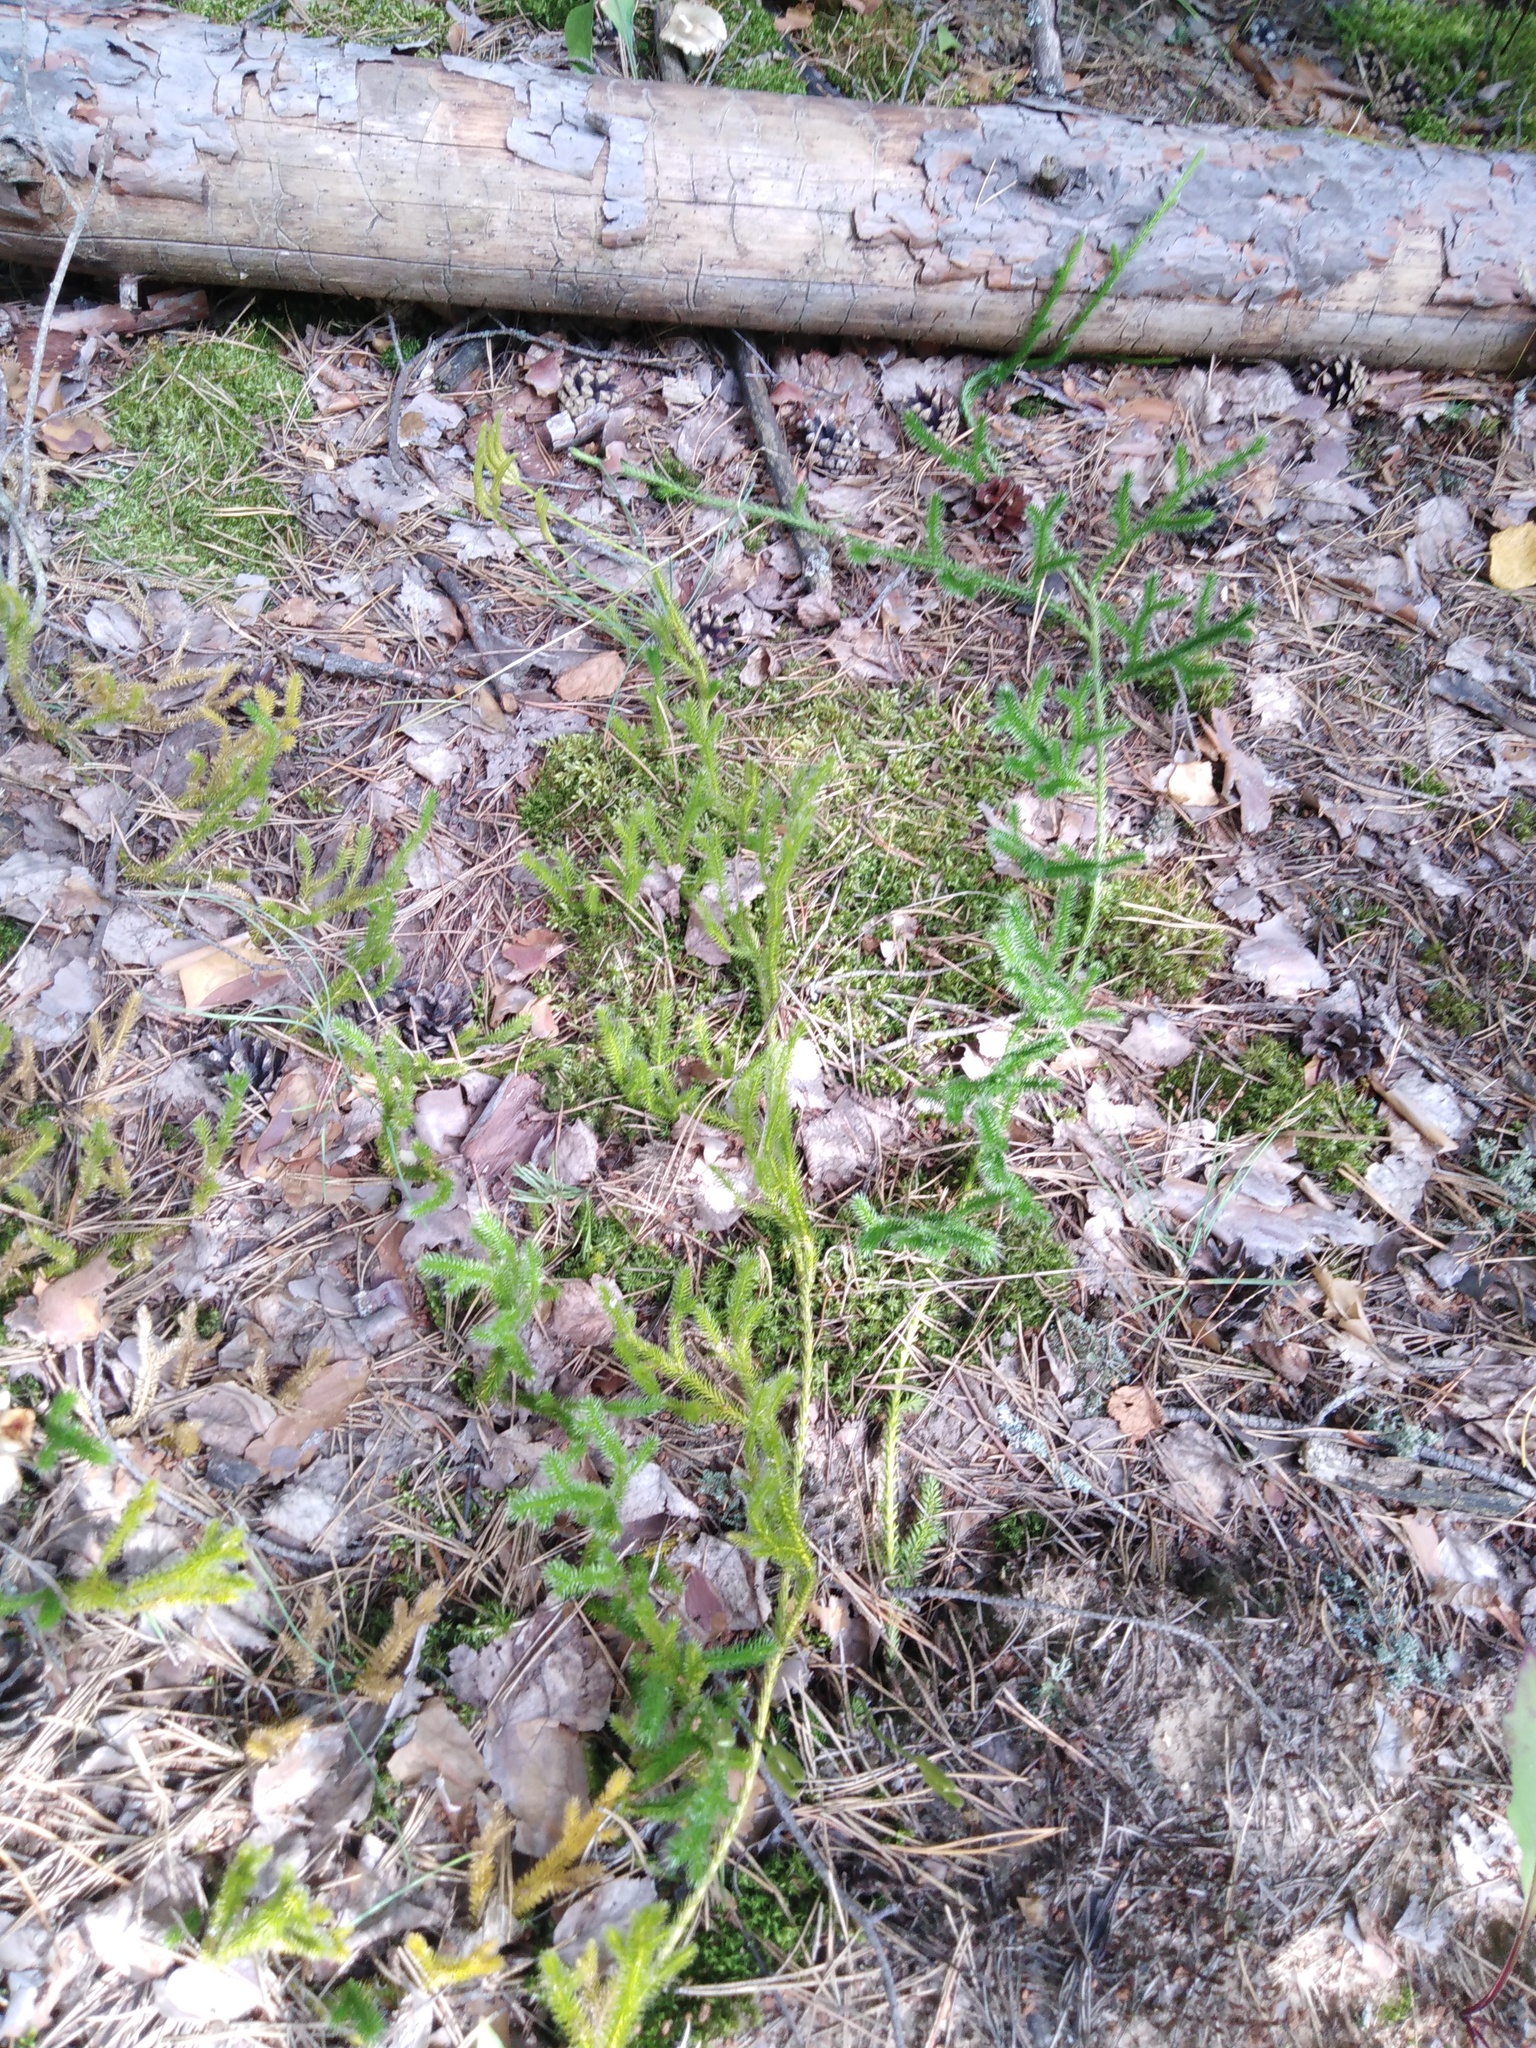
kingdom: Plantae
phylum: Tracheophyta
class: Lycopodiopsida
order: Lycopodiales
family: Lycopodiaceae
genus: Lycopodium
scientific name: Lycopodium clavatum
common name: Stag's-horn clubmoss
